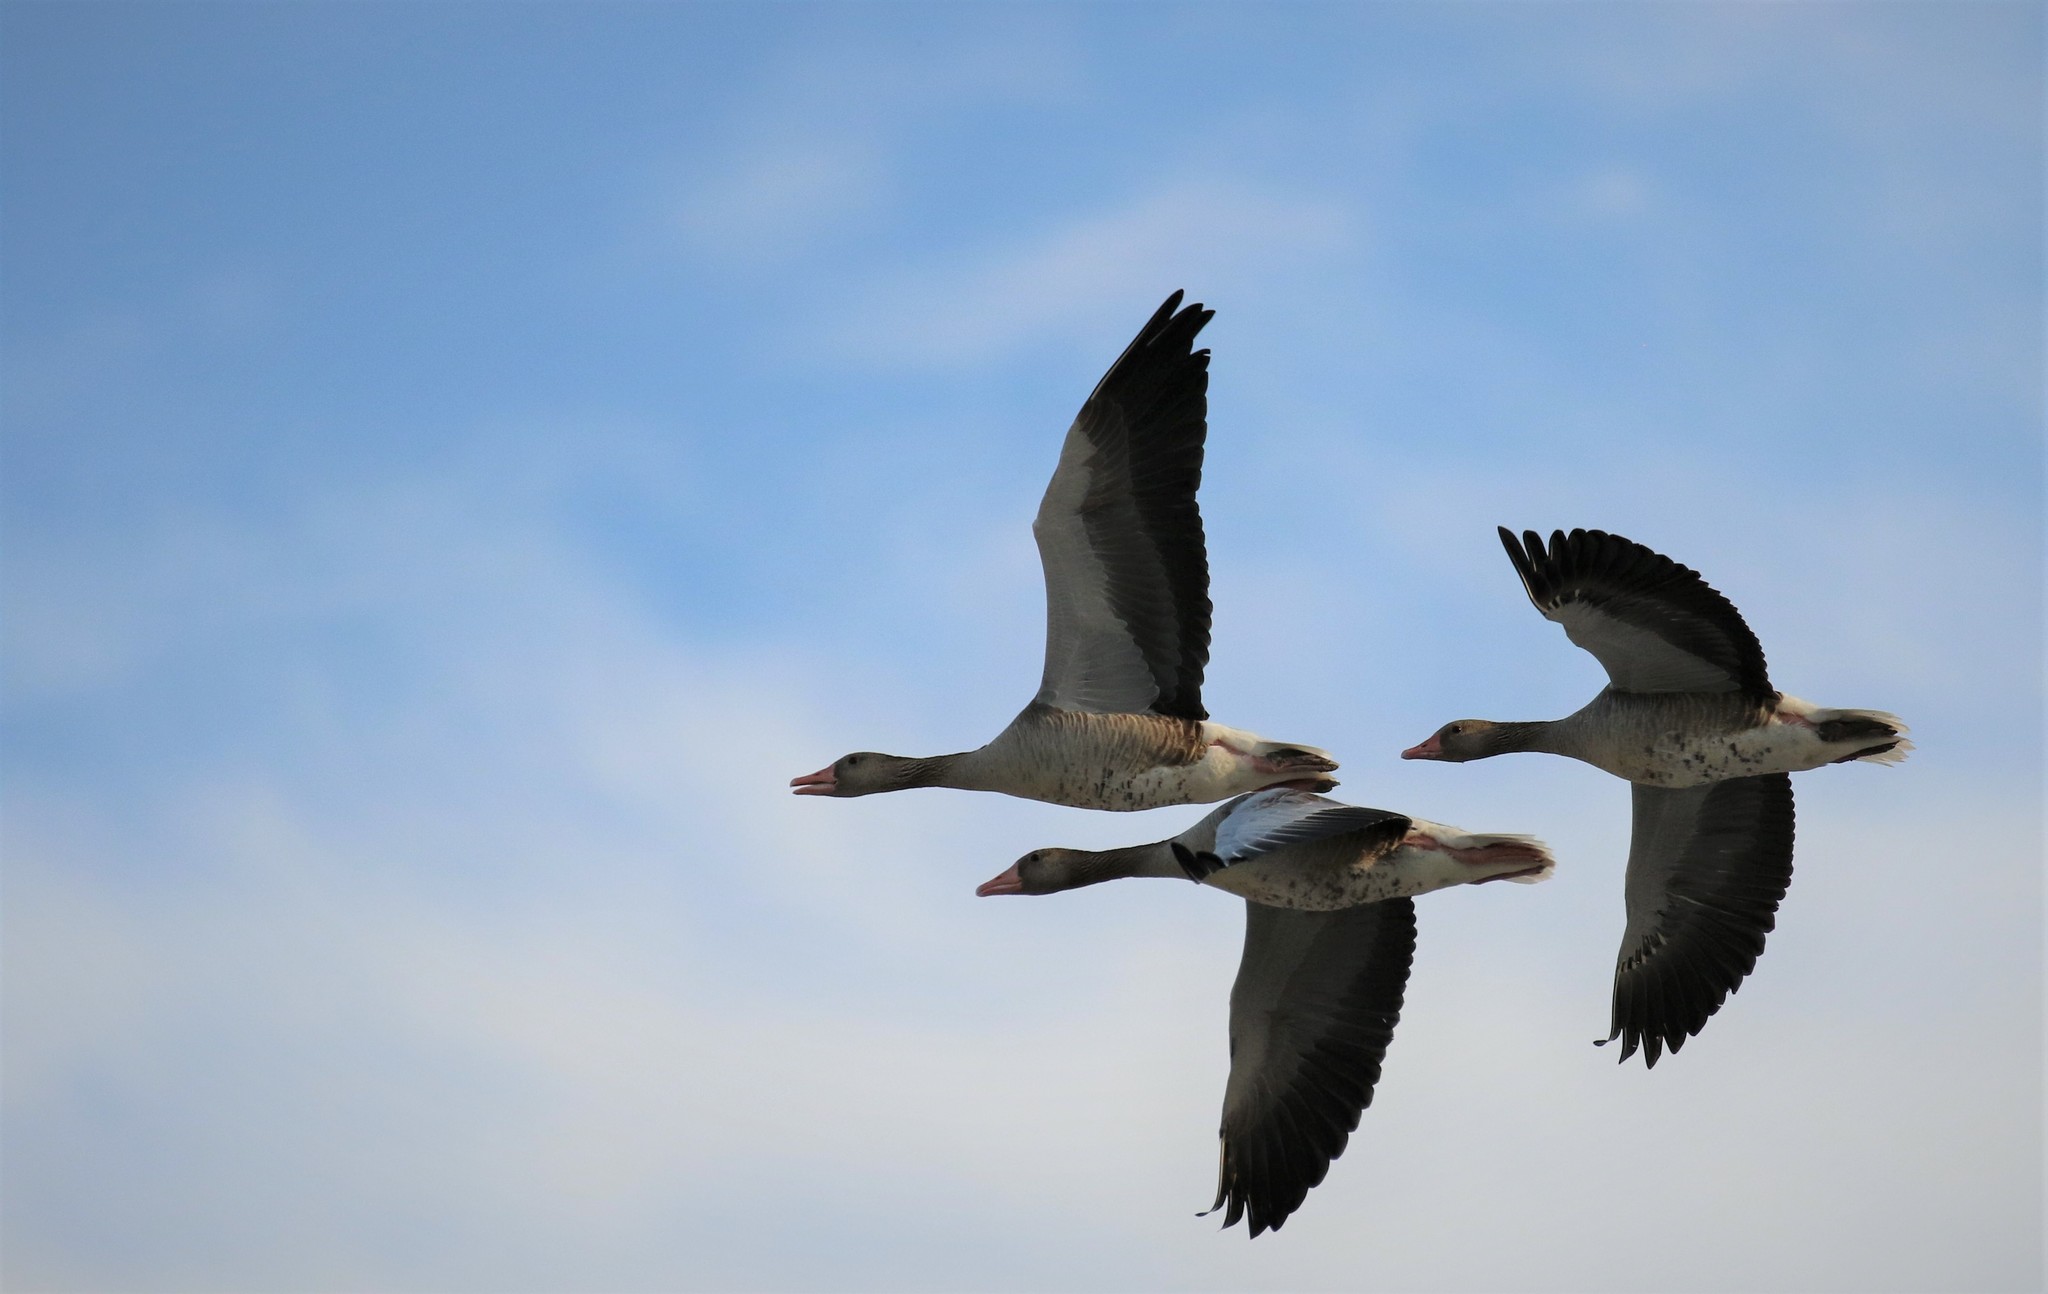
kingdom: Animalia
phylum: Chordata
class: Aves
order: Anseriformes
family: Anatidae
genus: Anser
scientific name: Anser anser
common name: Greylag goose
